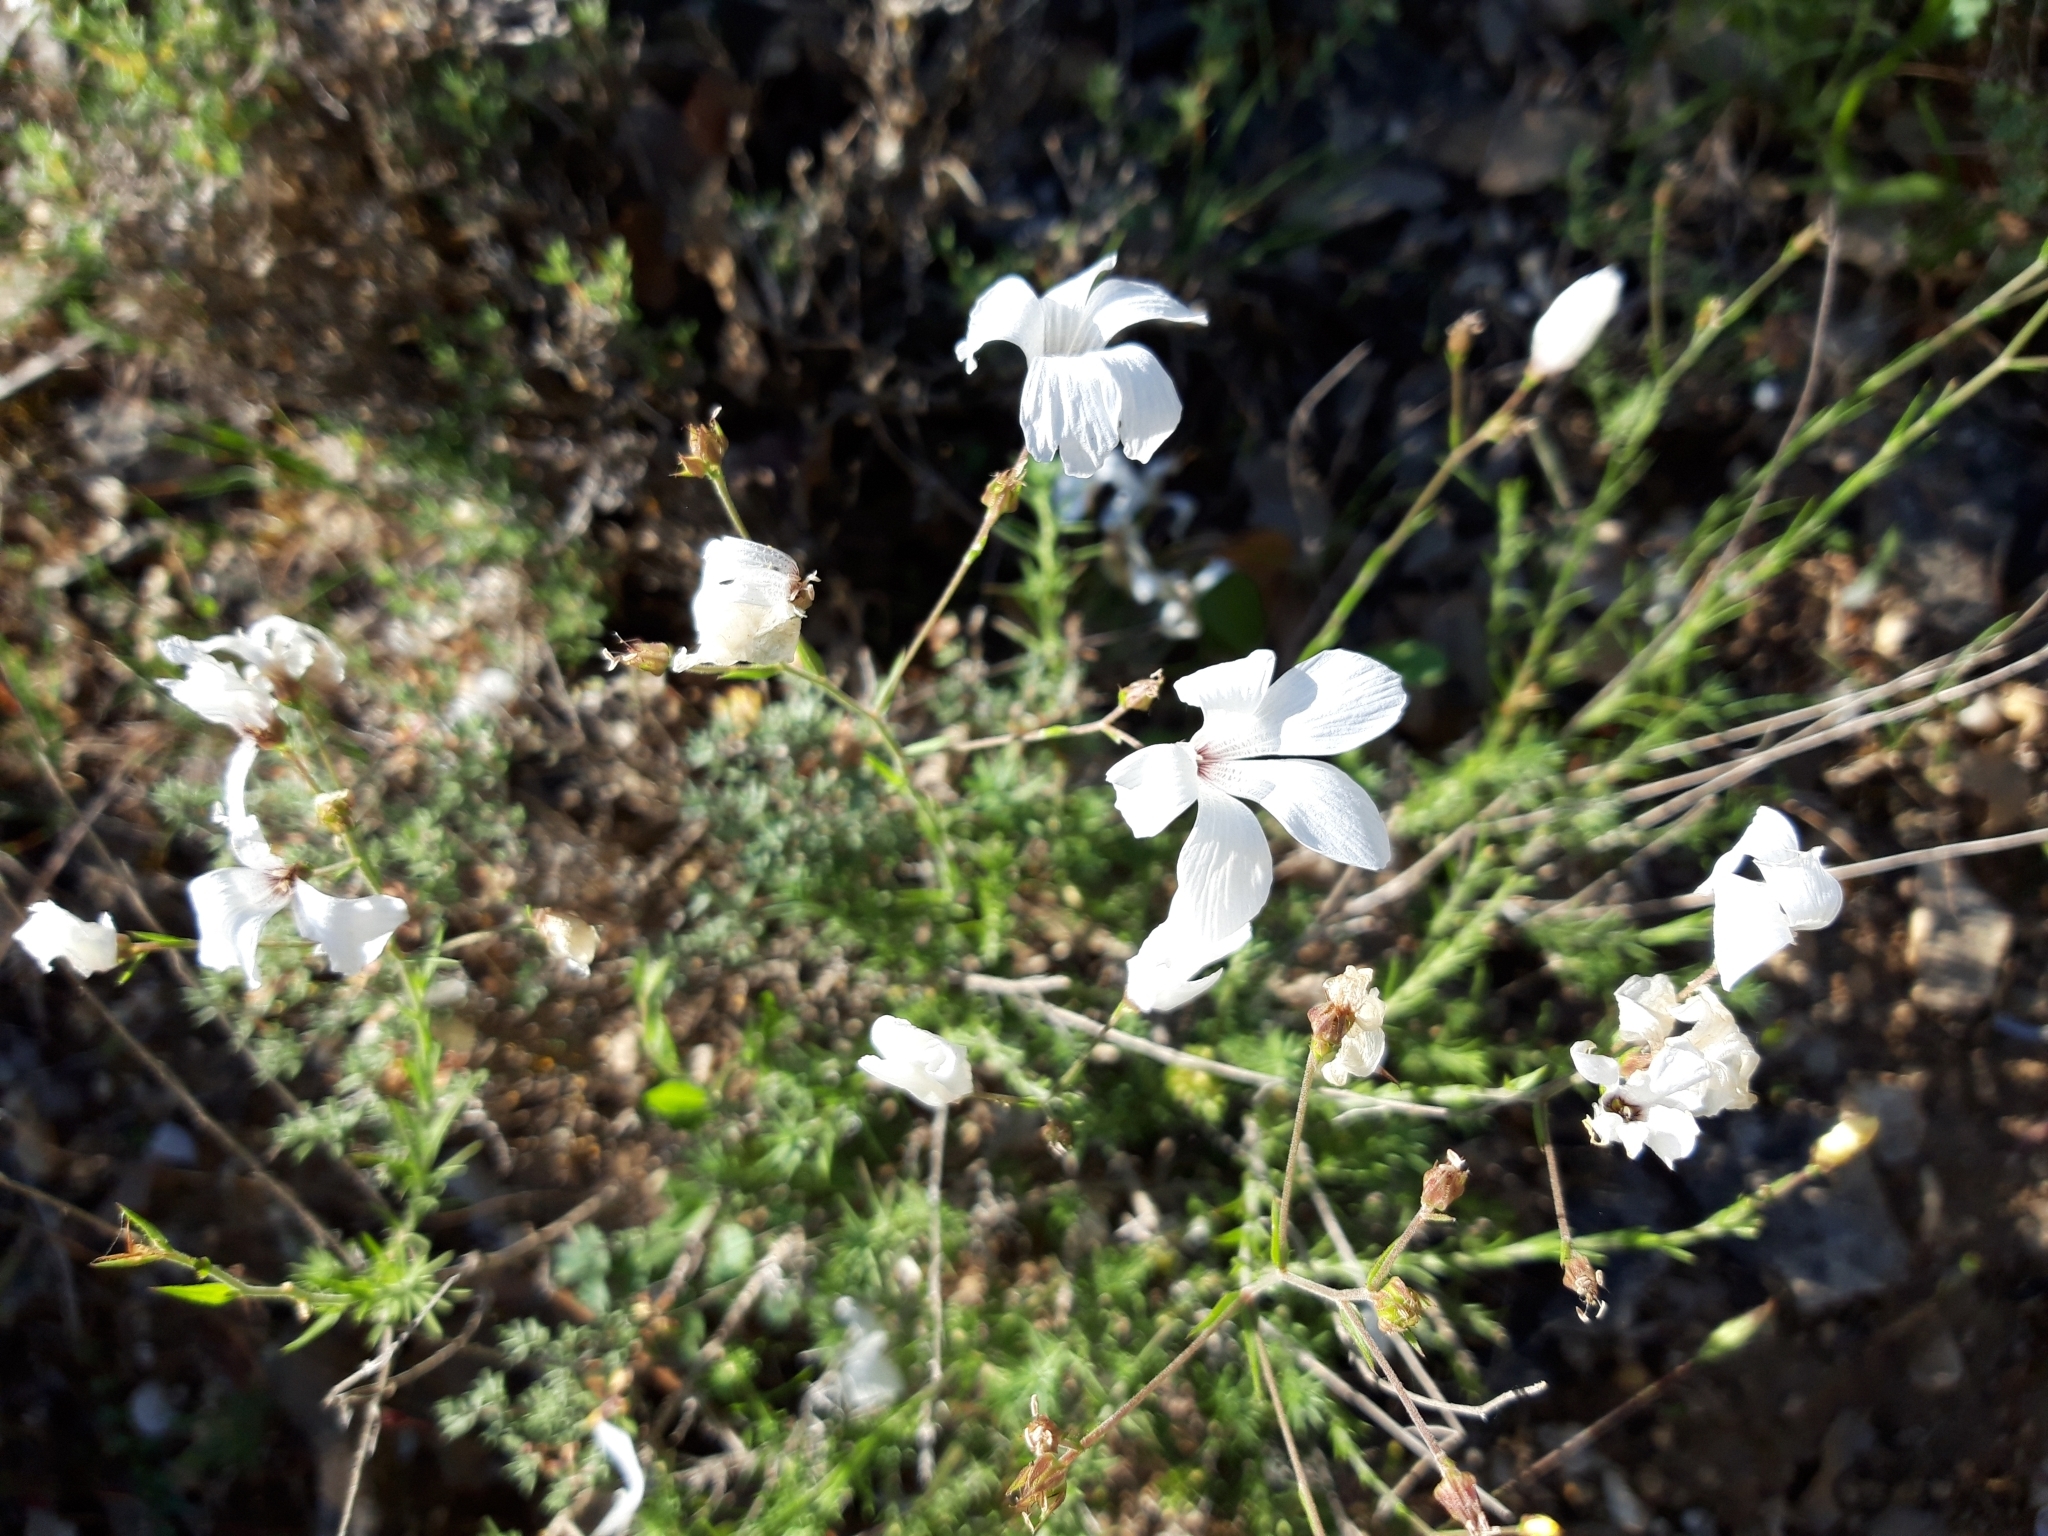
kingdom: Plantae
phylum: Tracheophyta
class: Magnoliopsida
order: Malpighiales
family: Linaceae
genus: Linum
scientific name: Linum suffruticosum
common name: White flax
